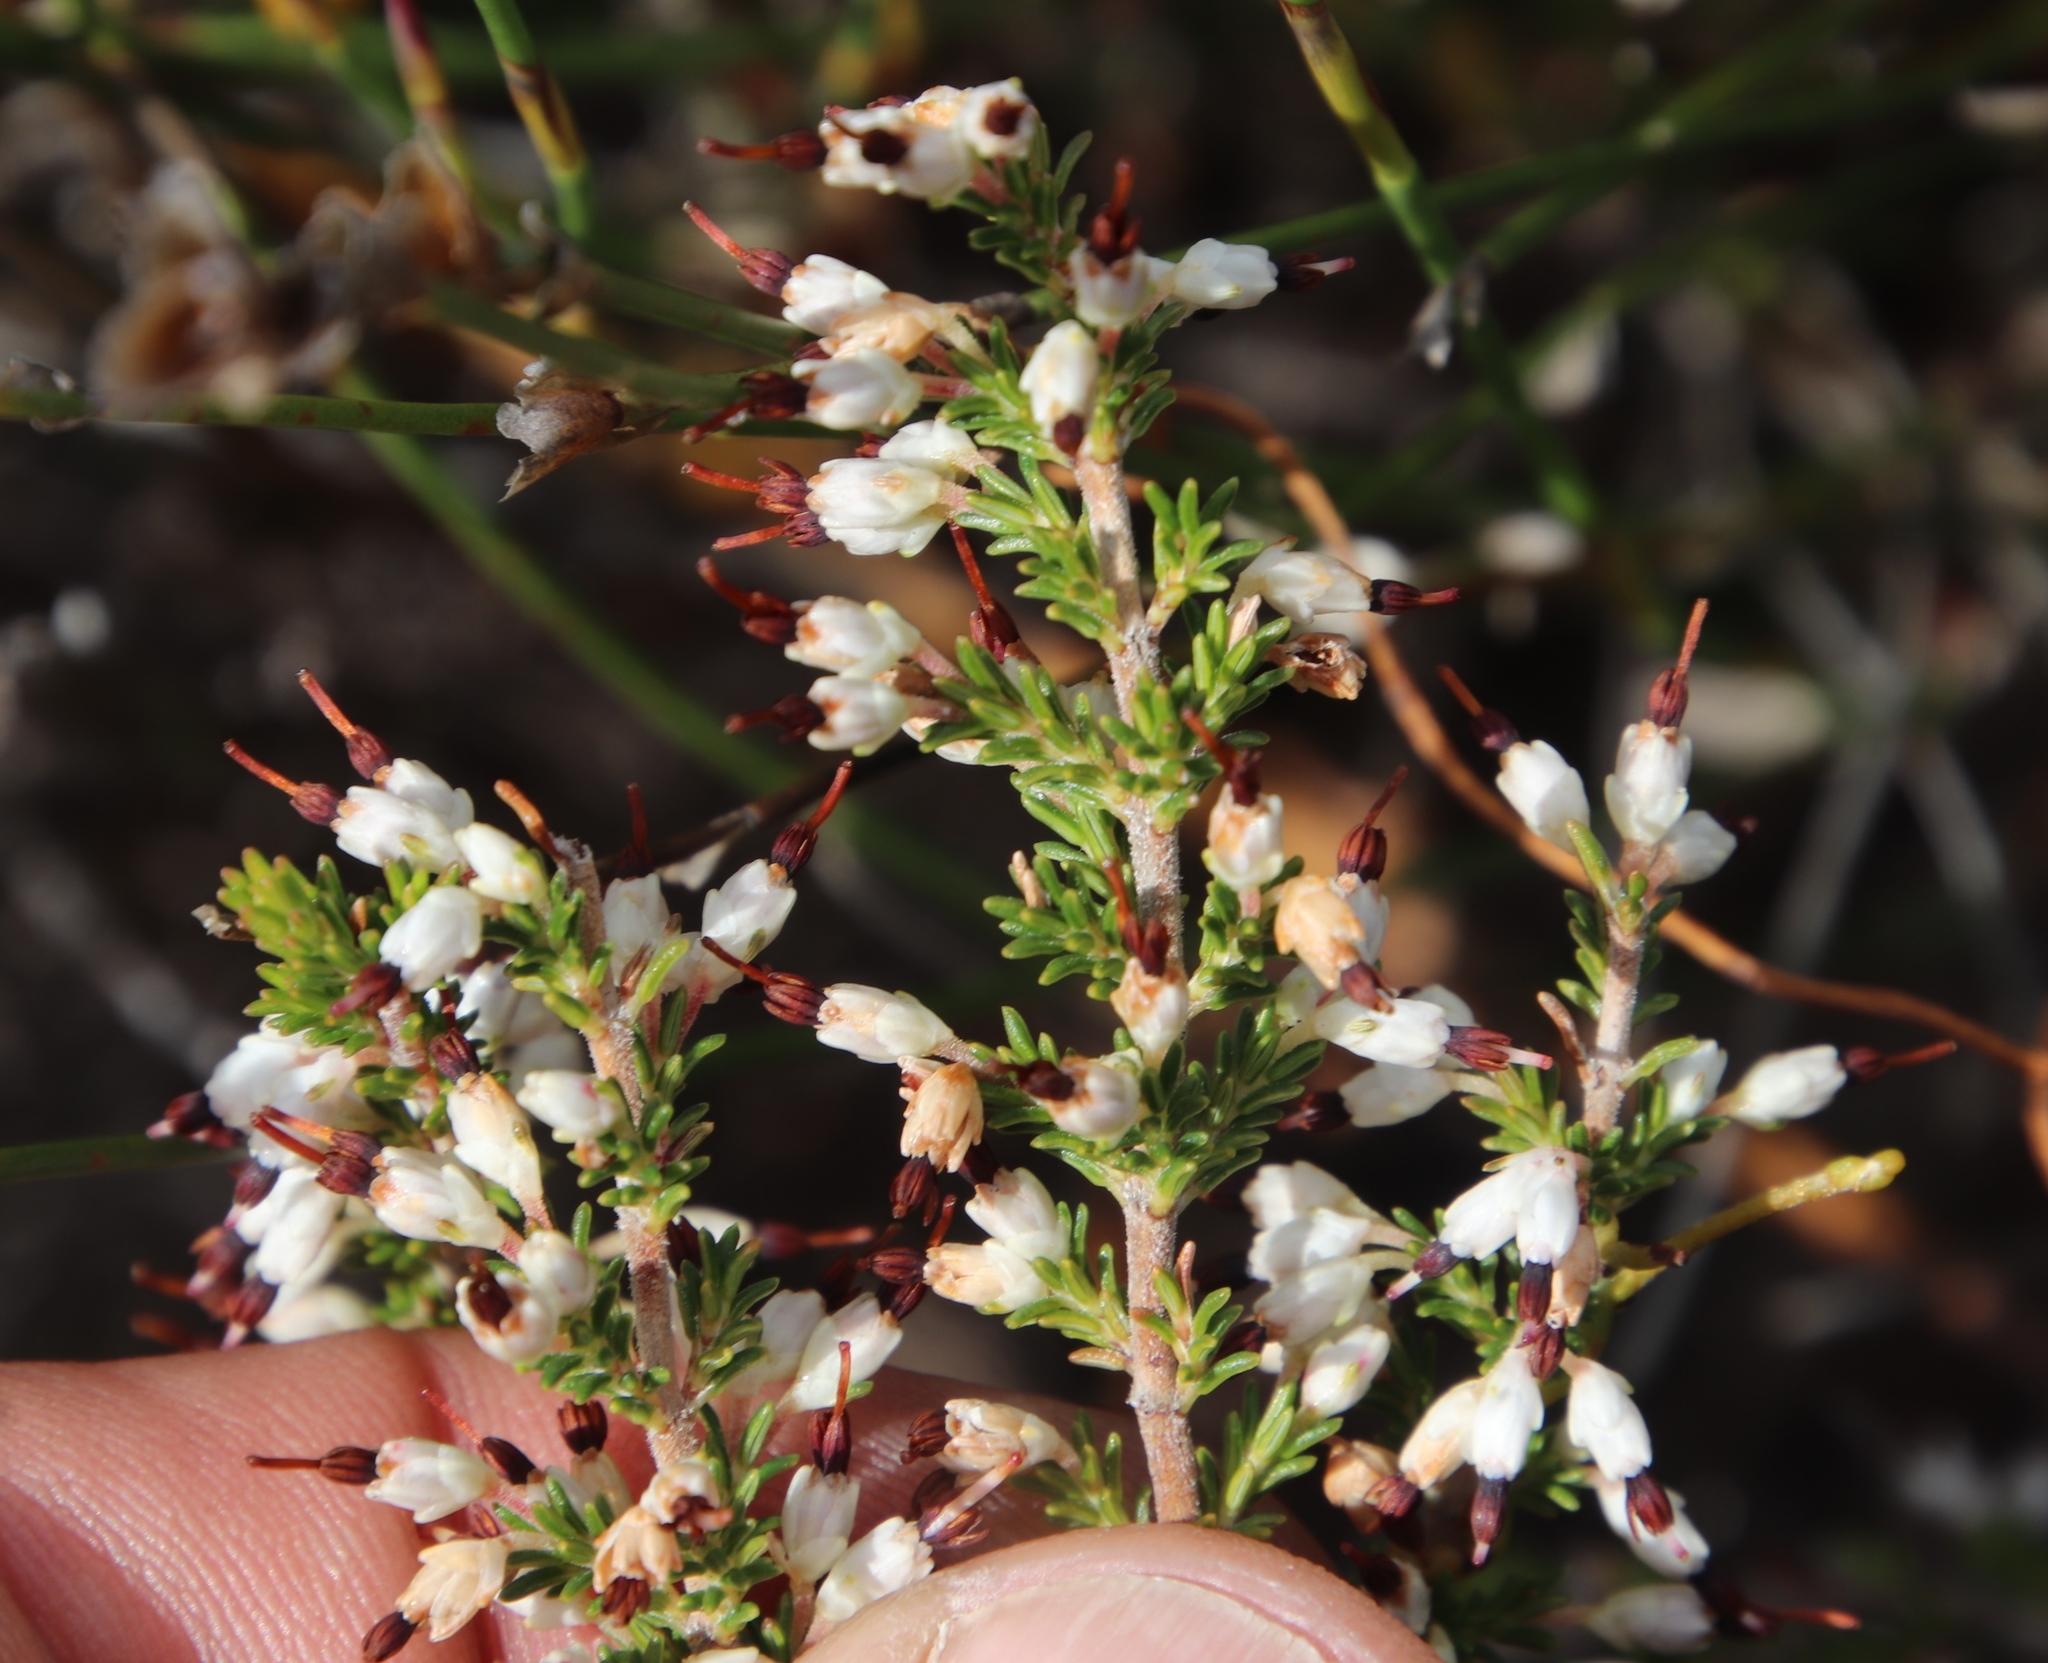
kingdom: Plantae
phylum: Tracheophyta
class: Magnoliopsida
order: Ericales
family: Ericaceae
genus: Erica
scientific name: Erica imbricata
